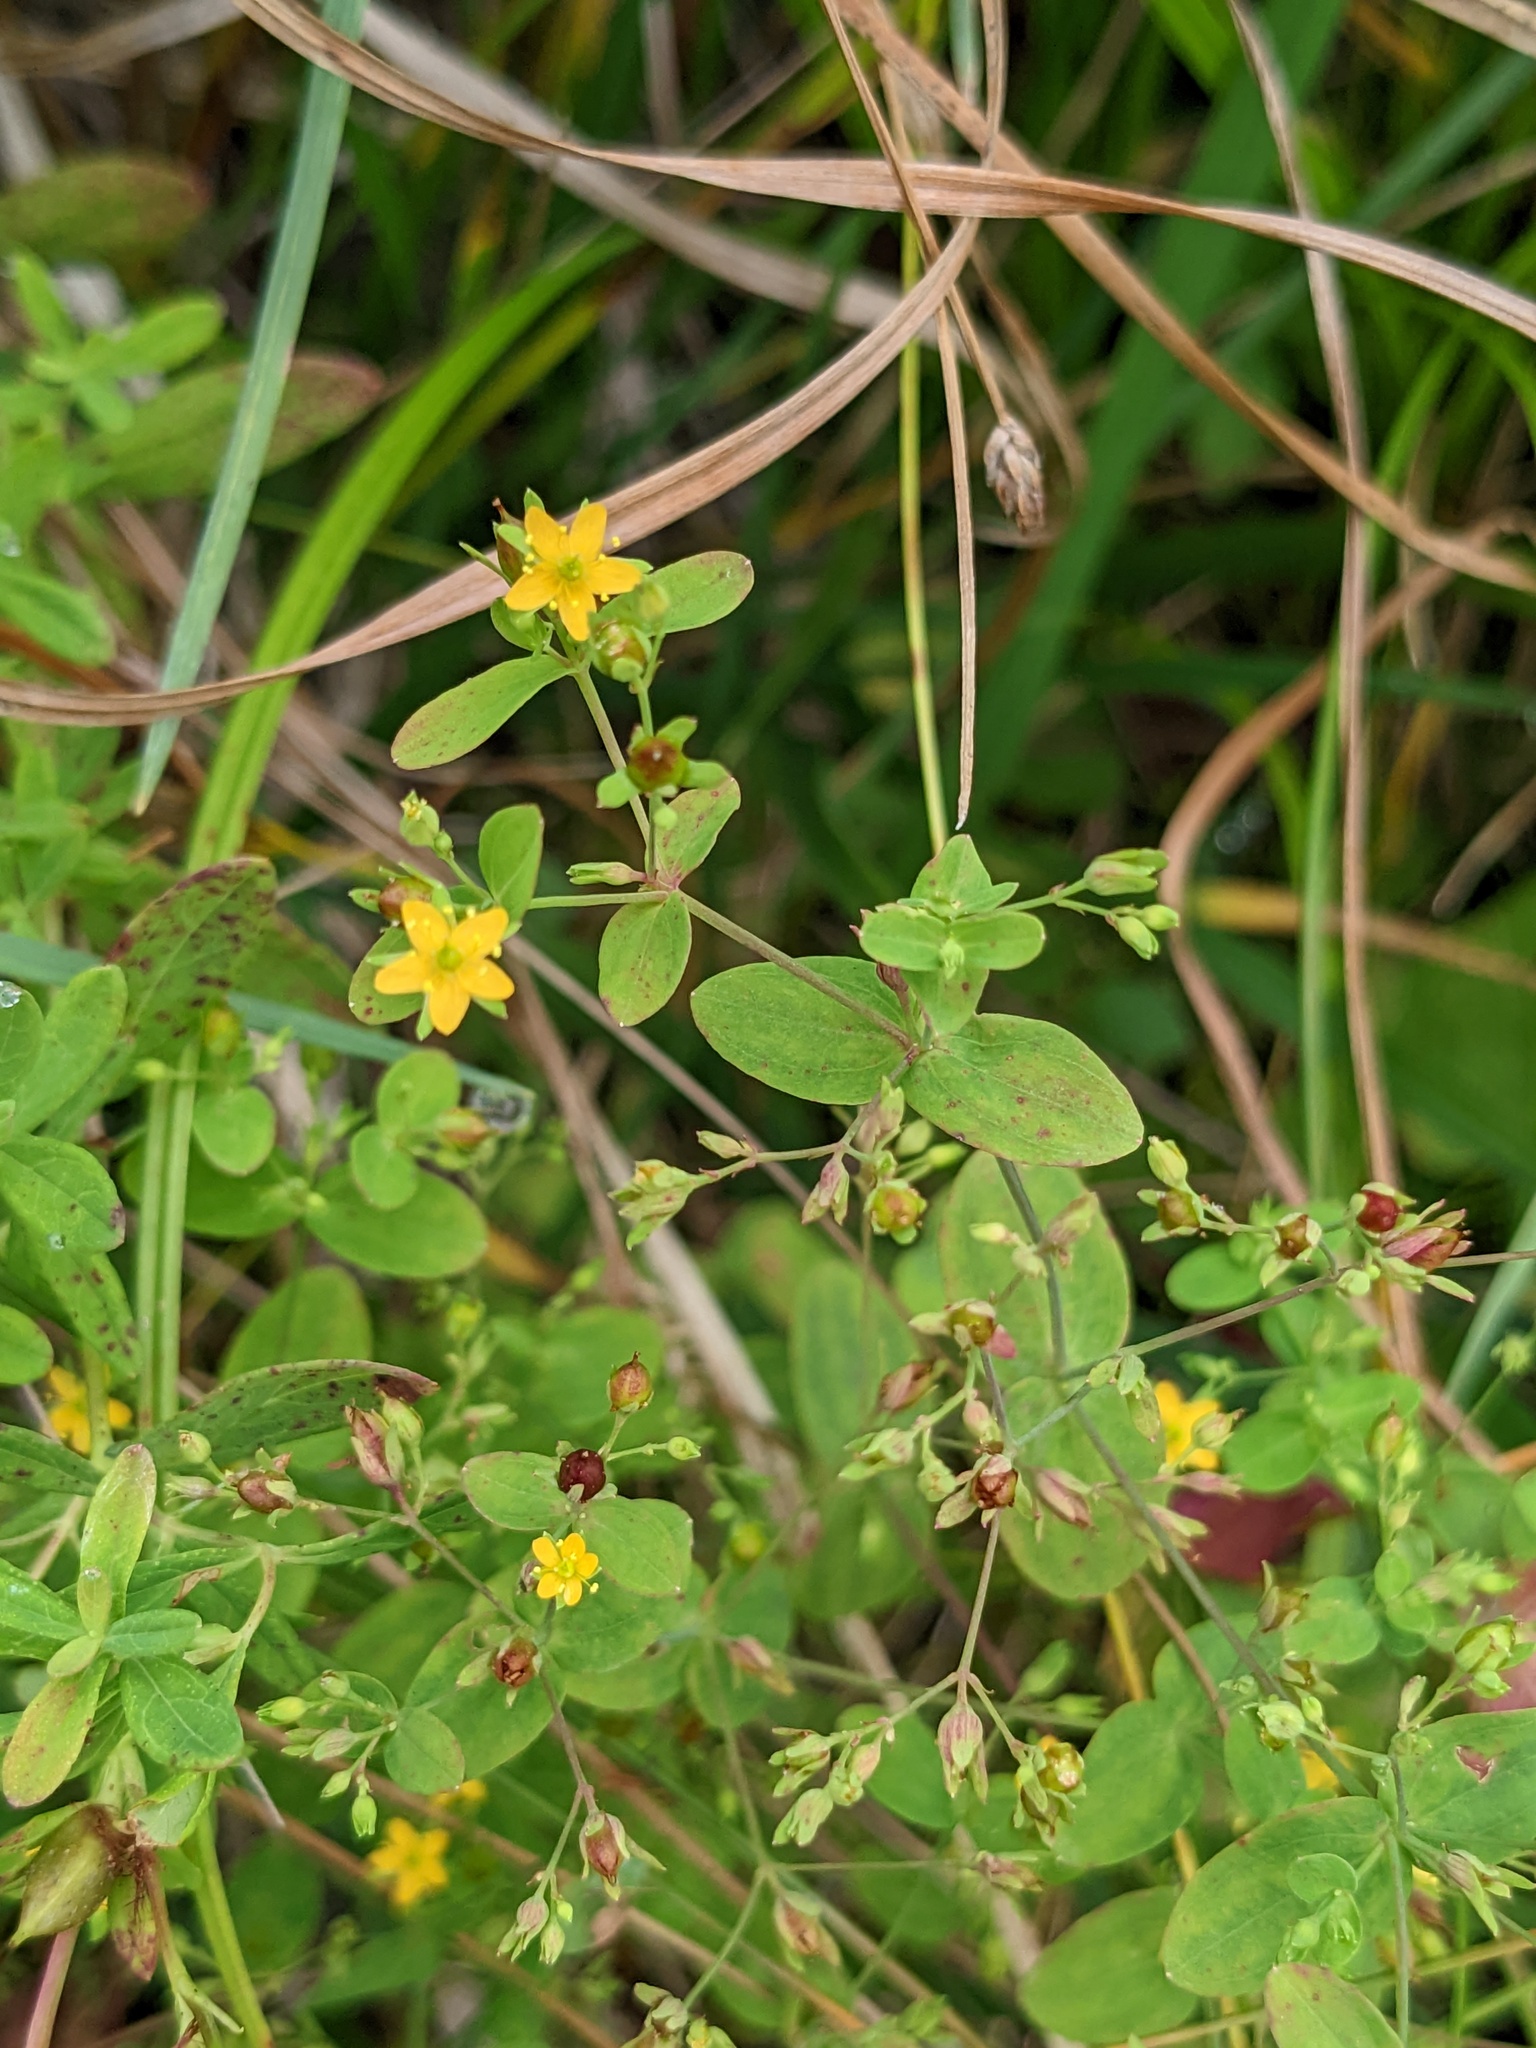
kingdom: Plantae
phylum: Tracheophyta
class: Magnoliopsida
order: Malpighiales
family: Hypericaceae
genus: Hypericum
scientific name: Hypericum mutilum
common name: Dwarf st. john's-wort
